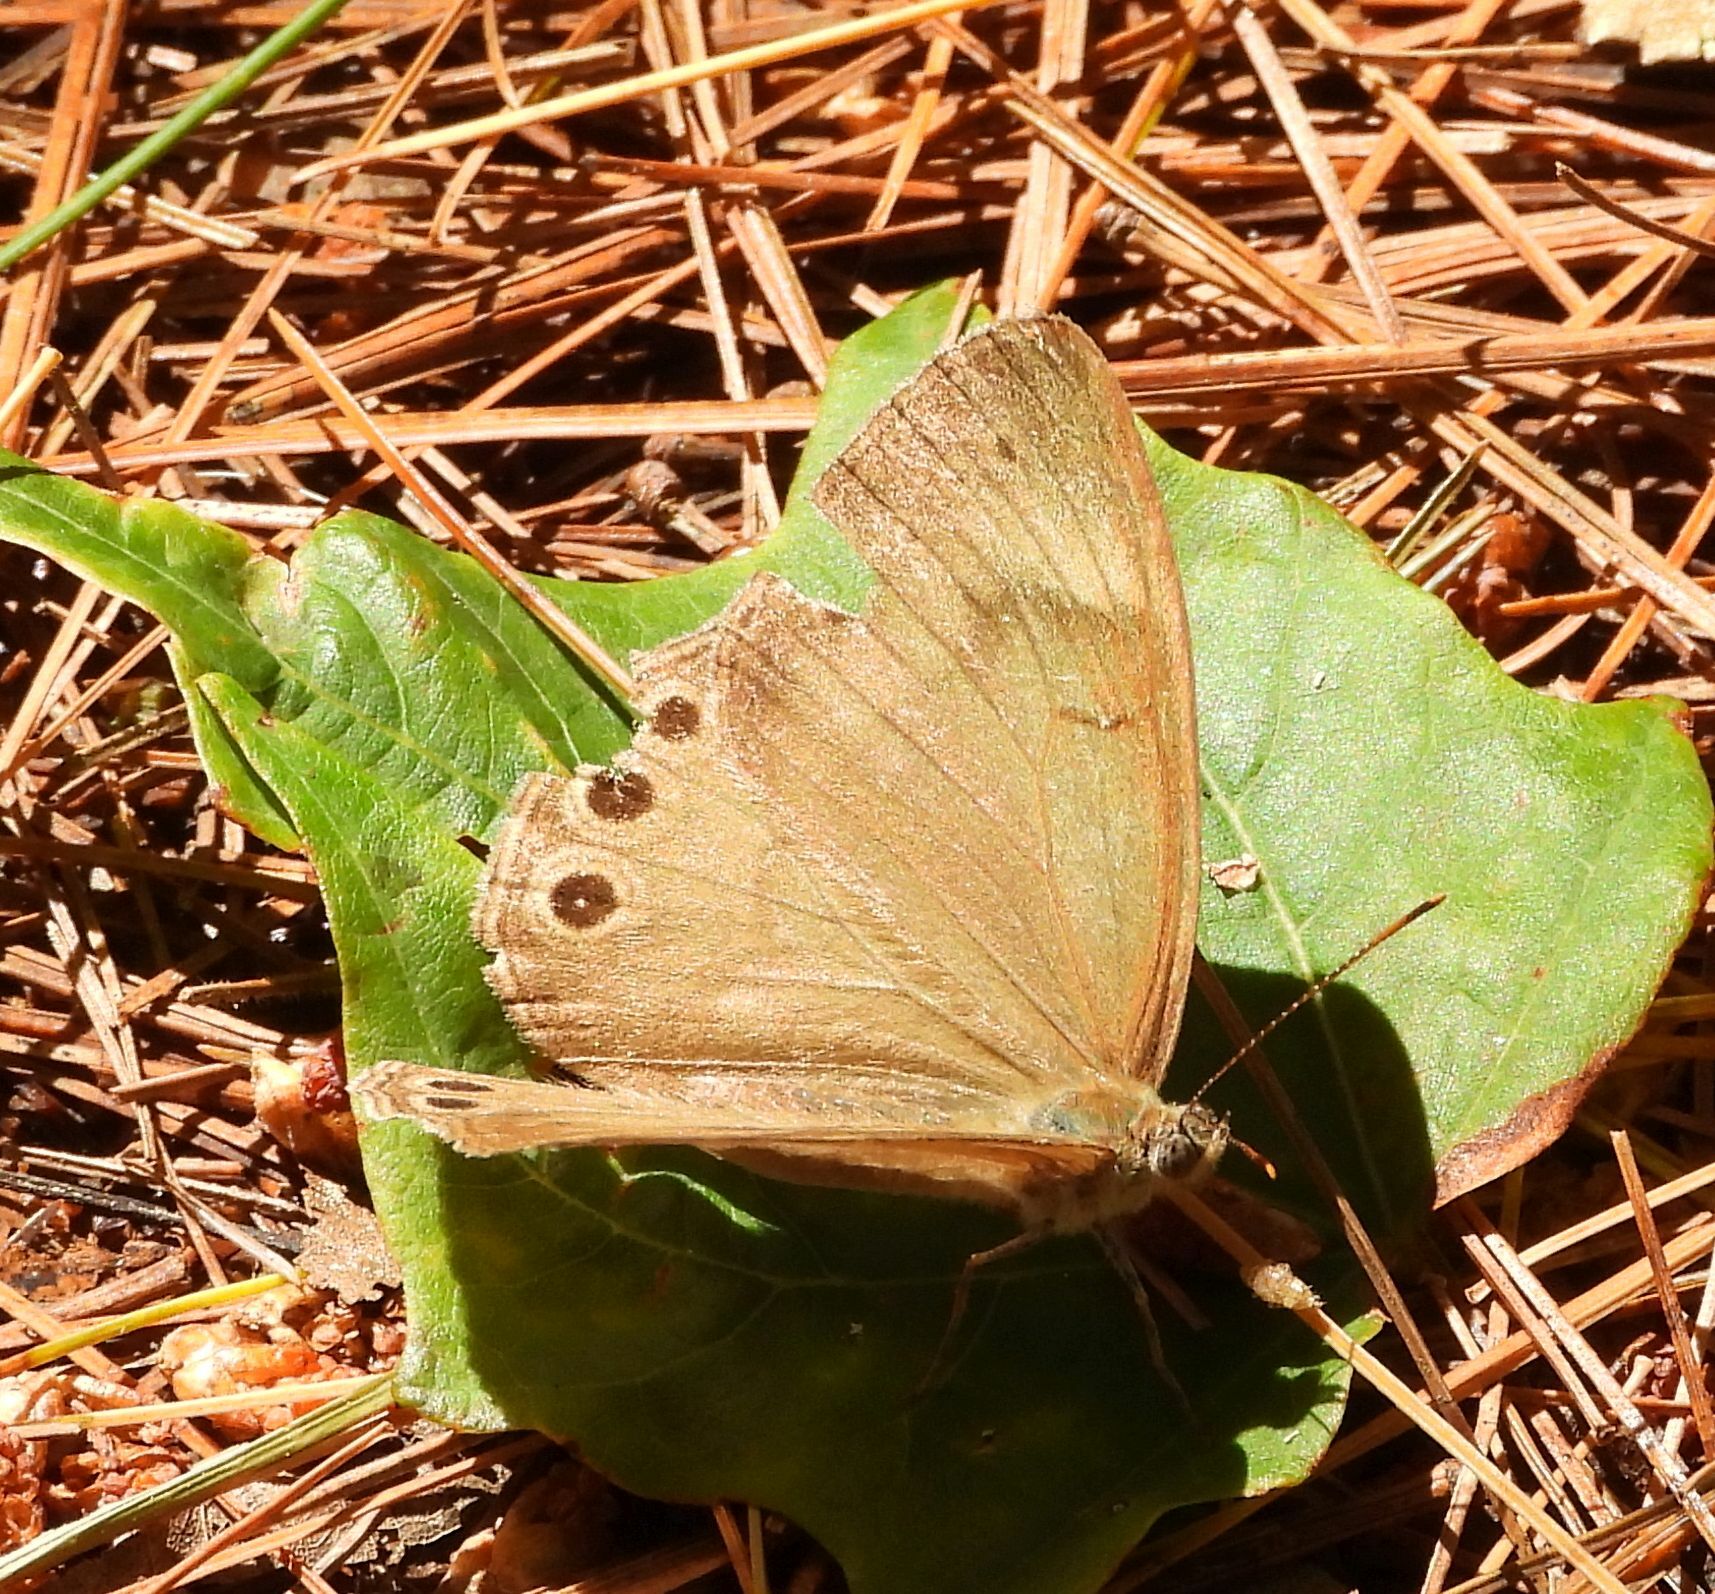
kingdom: Animalia
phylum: Arthropoda
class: Insecta
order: Lepidoptera
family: Nymphalidae
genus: Lethe
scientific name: Lethe eurydice
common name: Eyed brown
